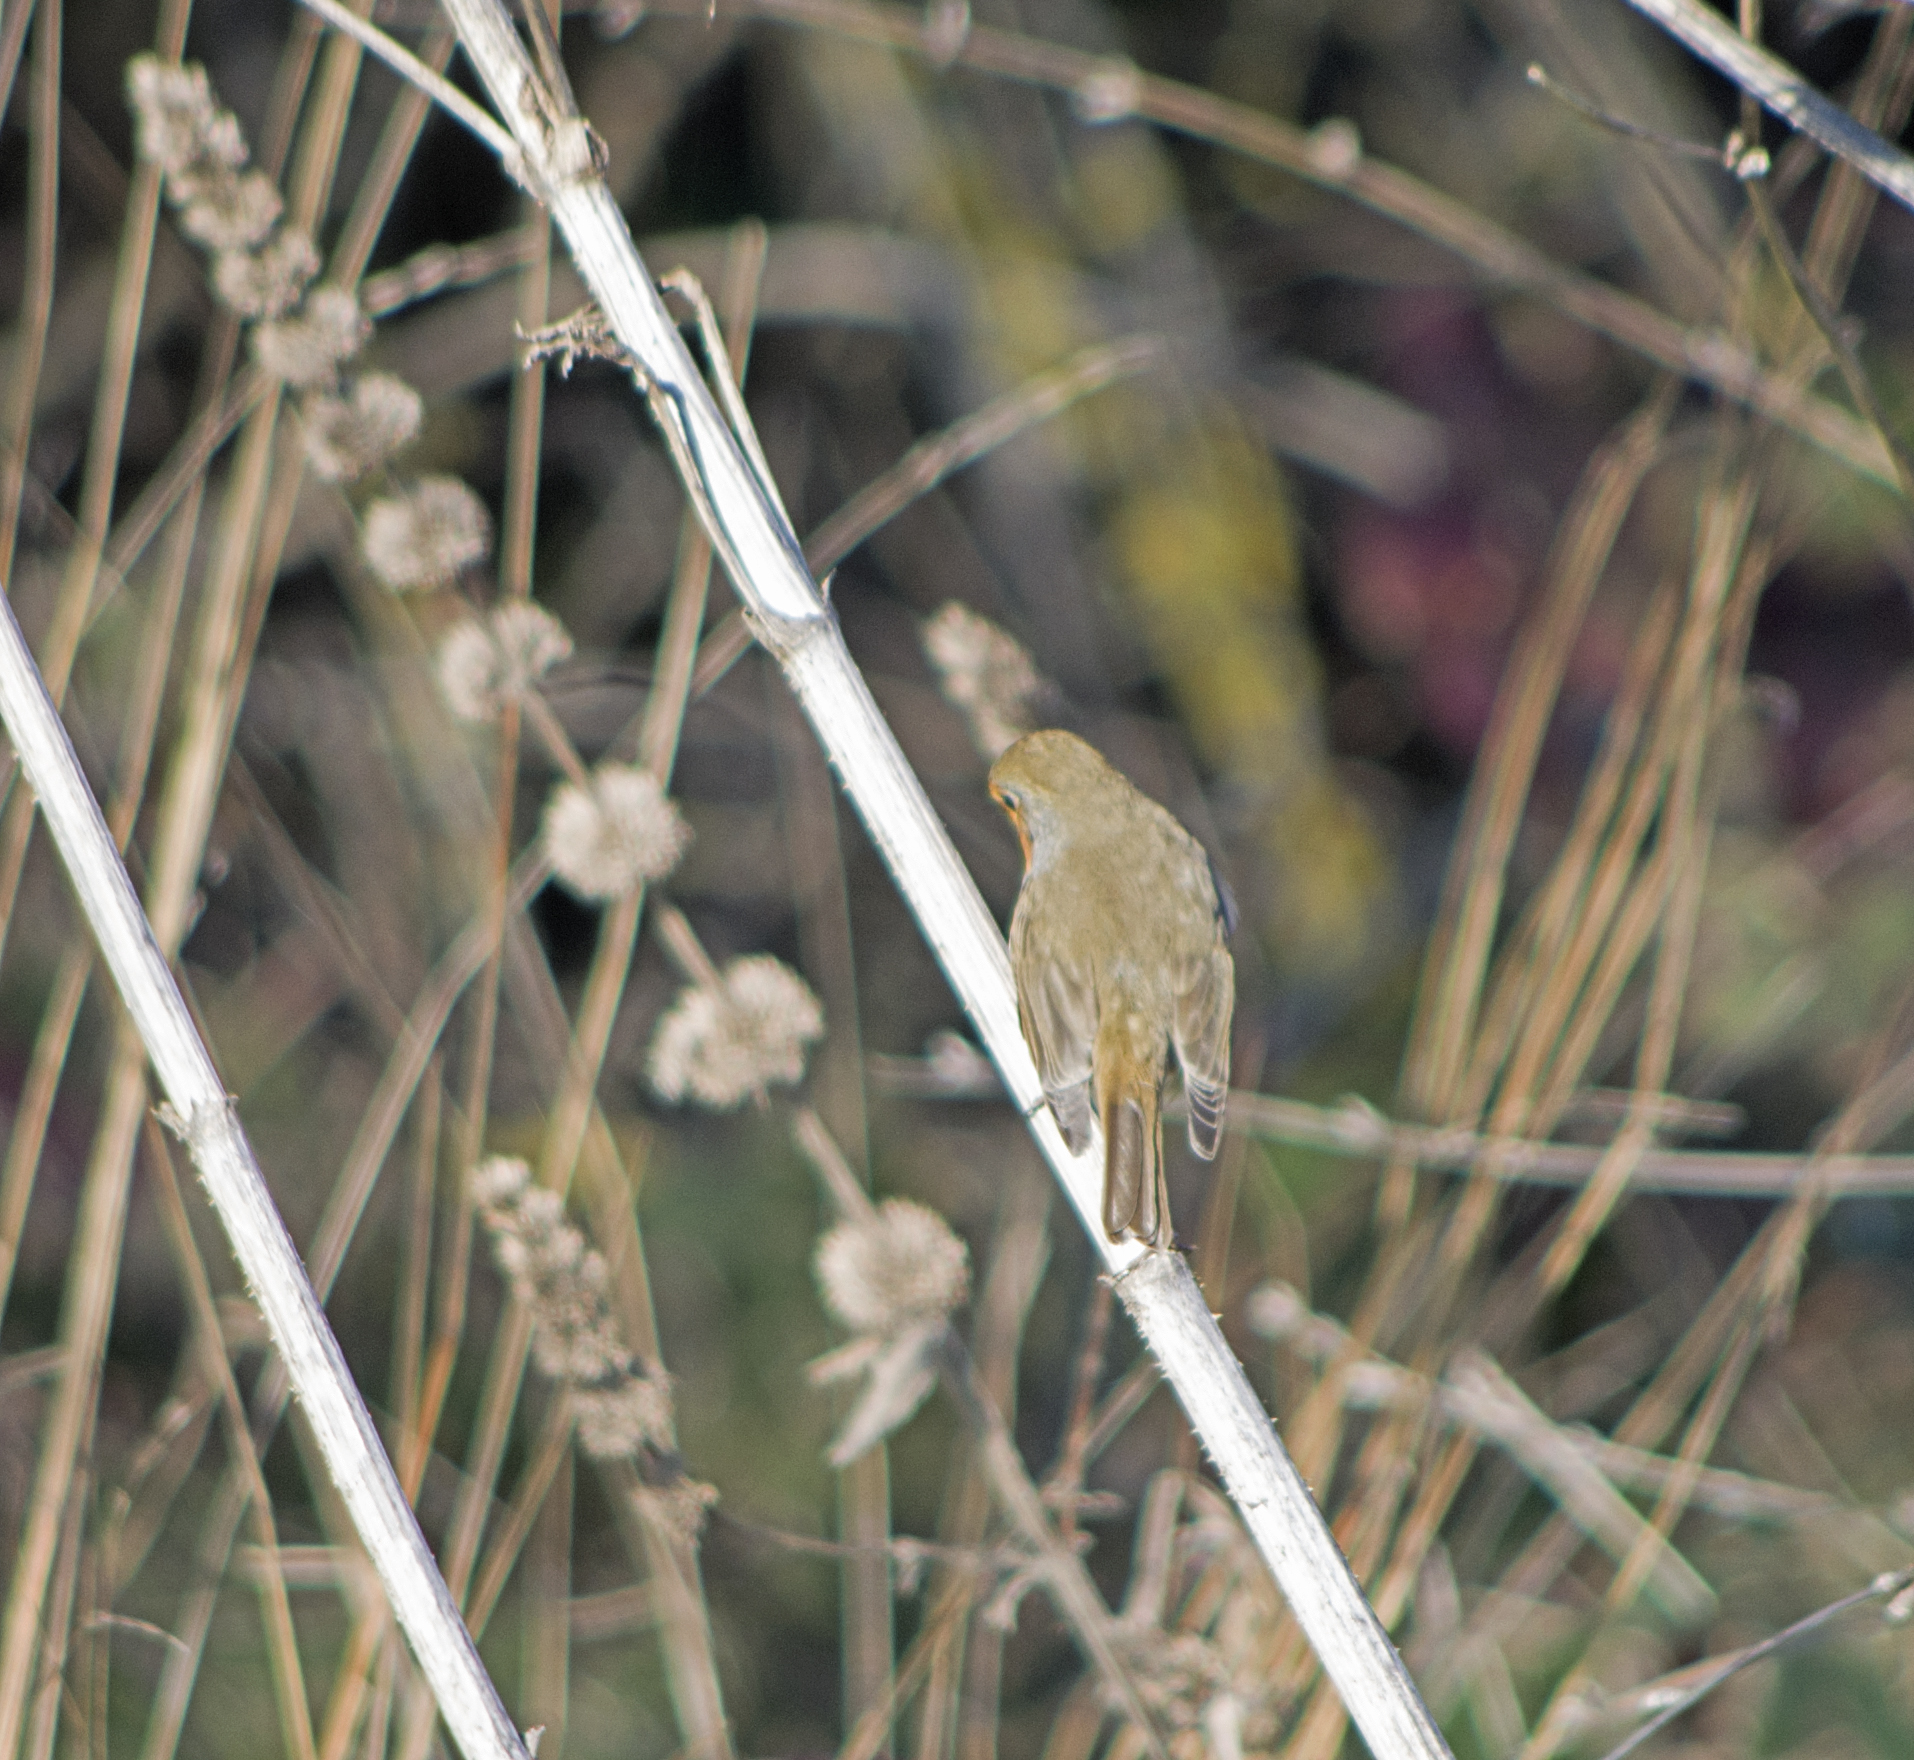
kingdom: Animalia
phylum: Chordata
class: Aves
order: Passeriformes
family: Muscicapidae
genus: Erithacus
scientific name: Erithacus rubecula
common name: European robin
